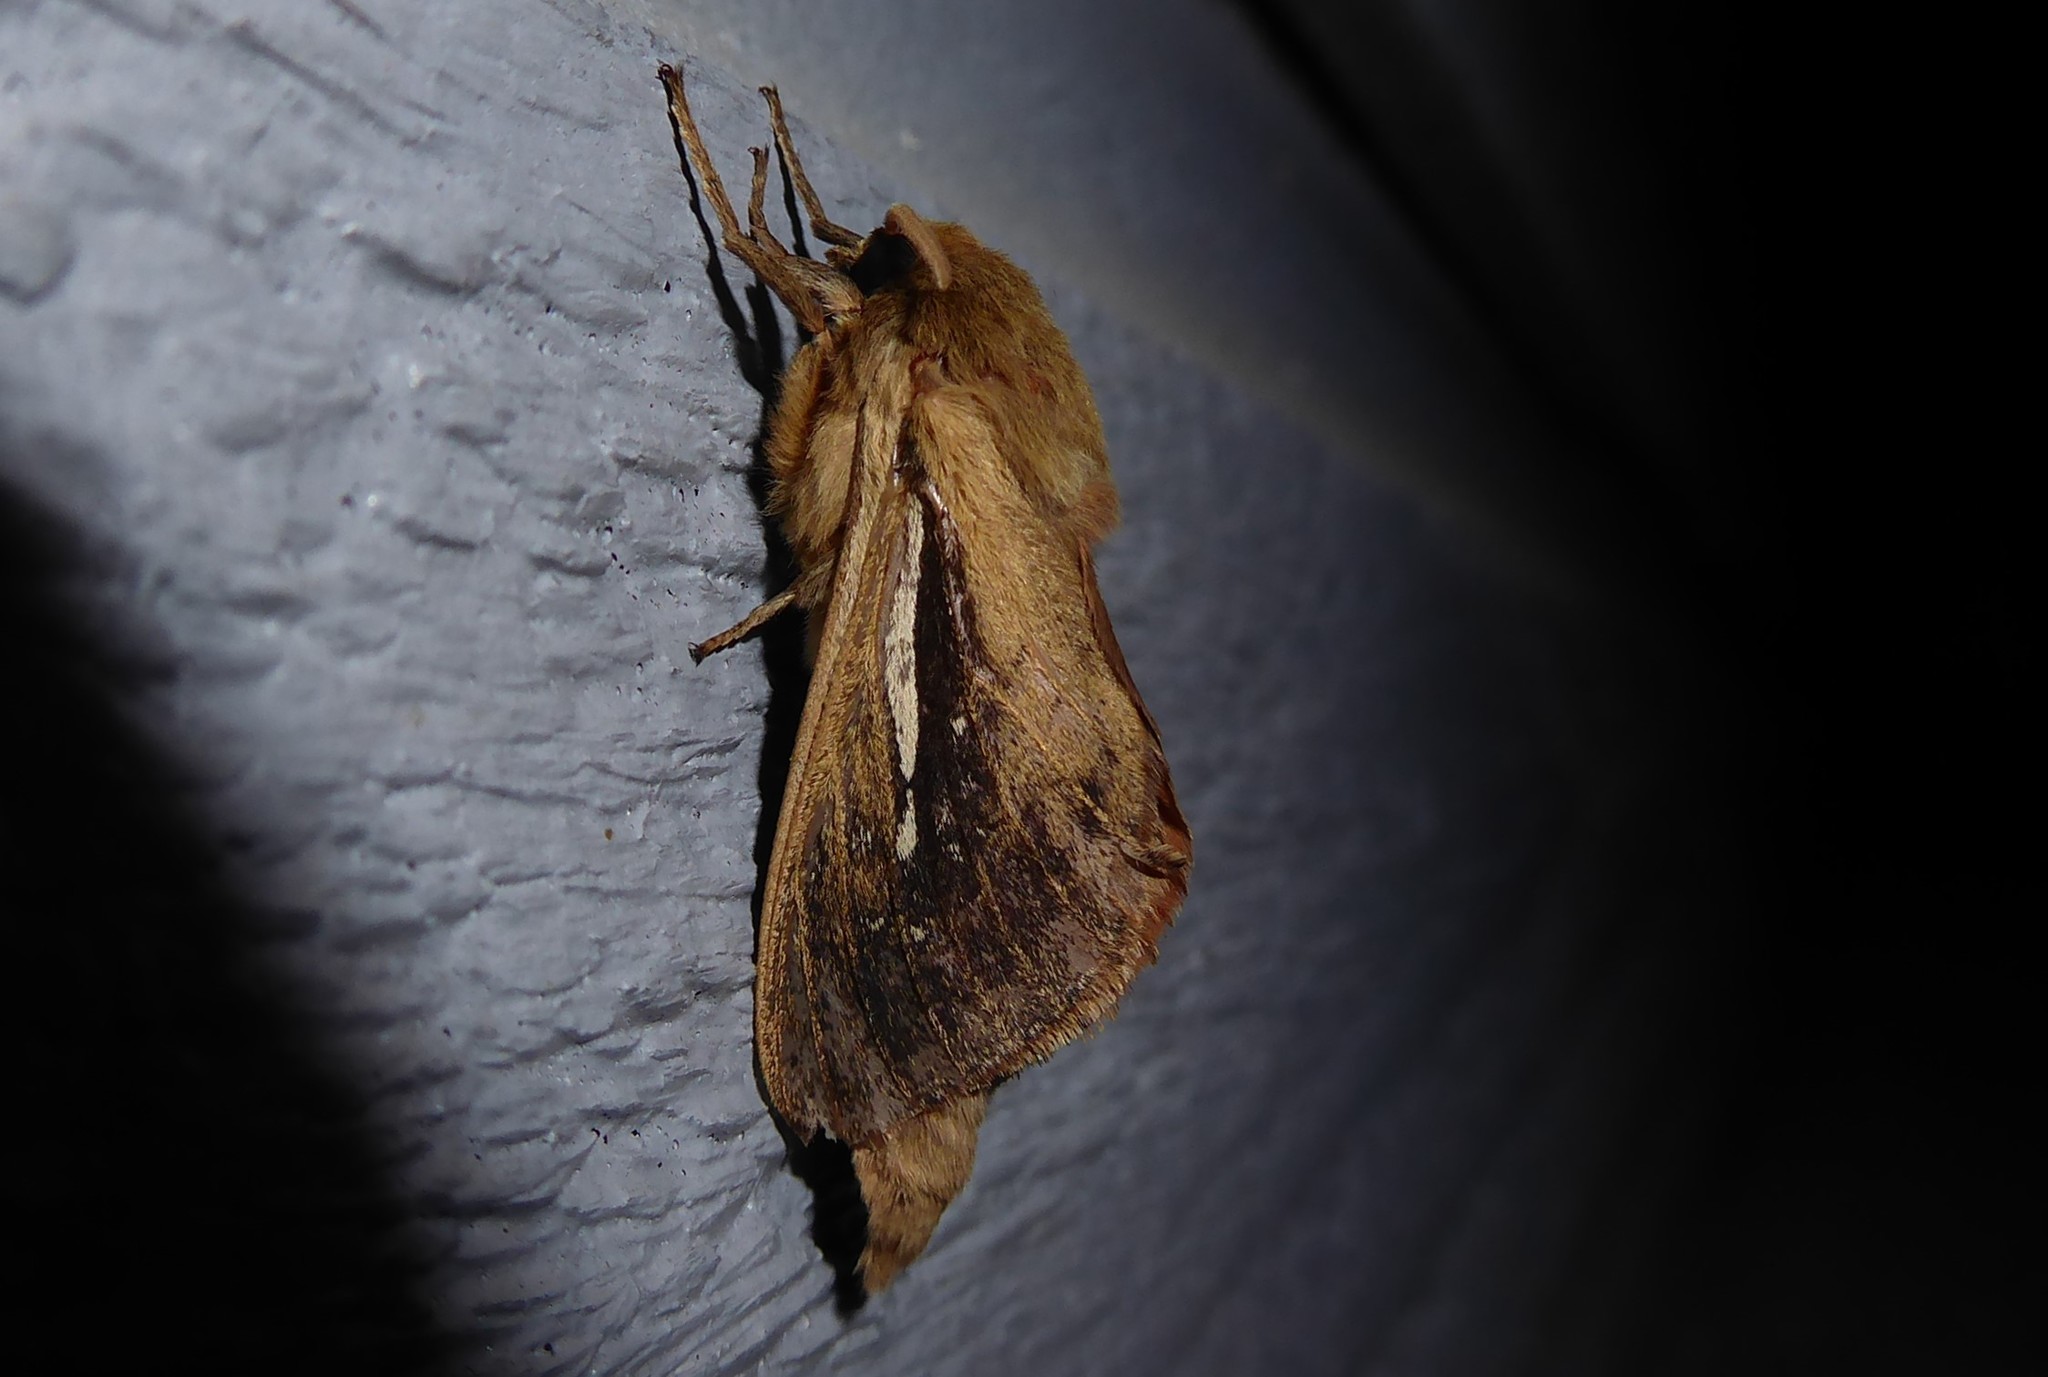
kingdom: Animalia
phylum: Arthropoda
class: Insecta
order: Lepidoptera
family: Hepialidae
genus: Wiseana
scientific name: Wiseana umbraculatus
